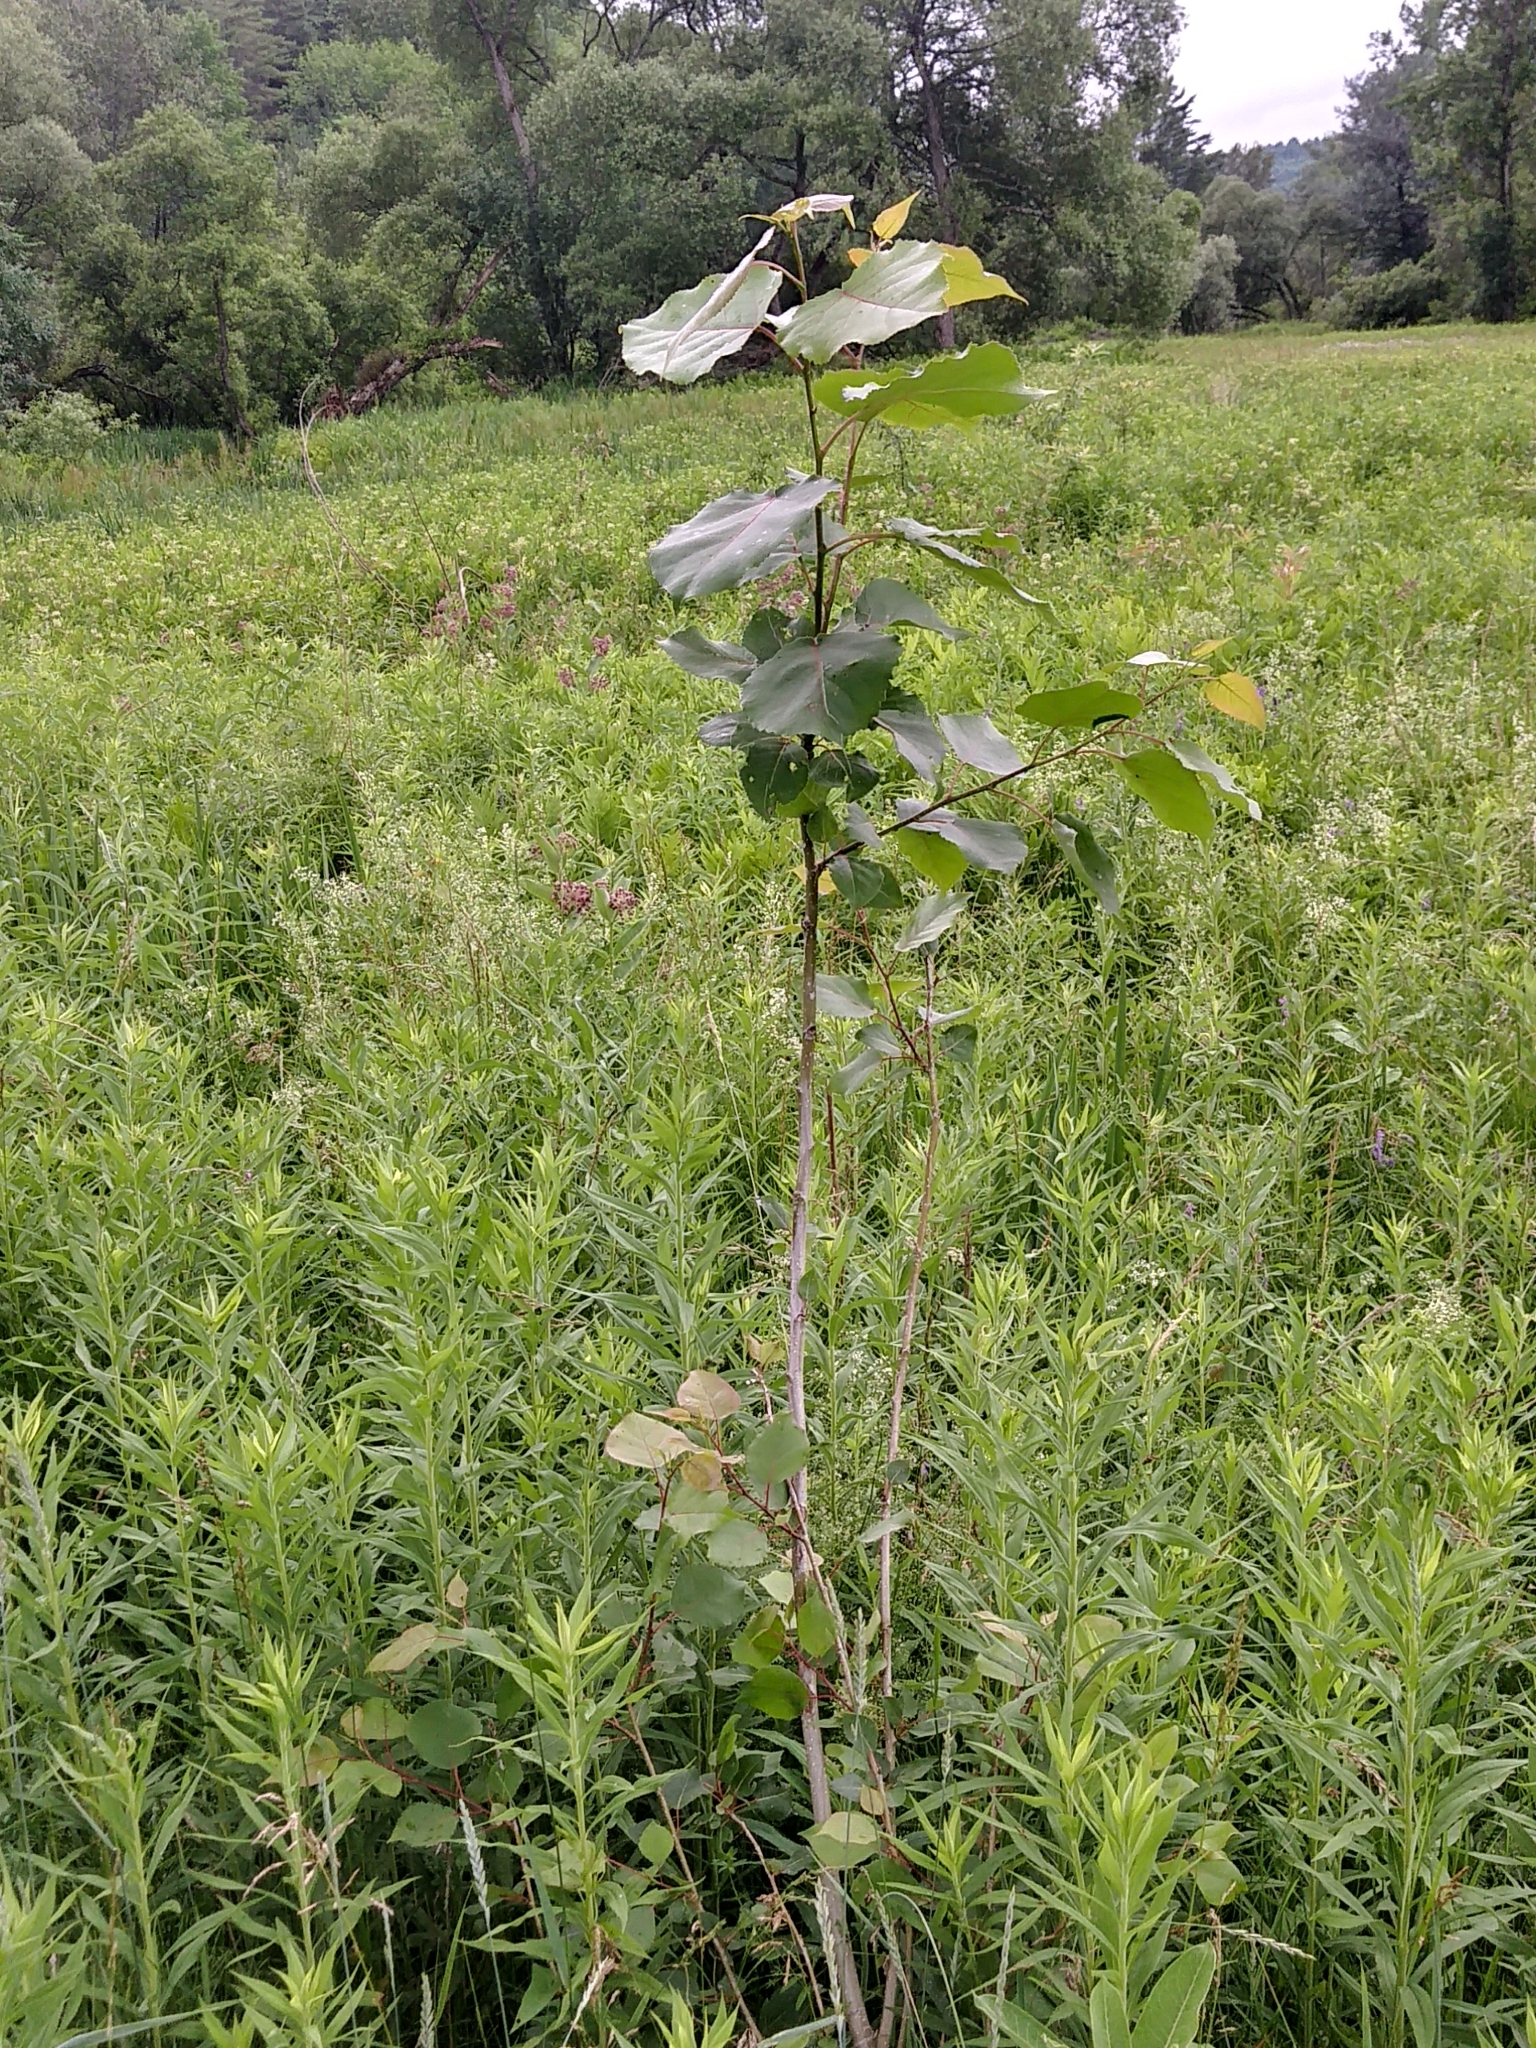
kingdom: Plantae
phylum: Tracheophyta
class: Magnoliopsida
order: Malpighiales
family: Salicaceae
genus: Populus
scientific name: Populus deltoides
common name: Eastern cottonwood
